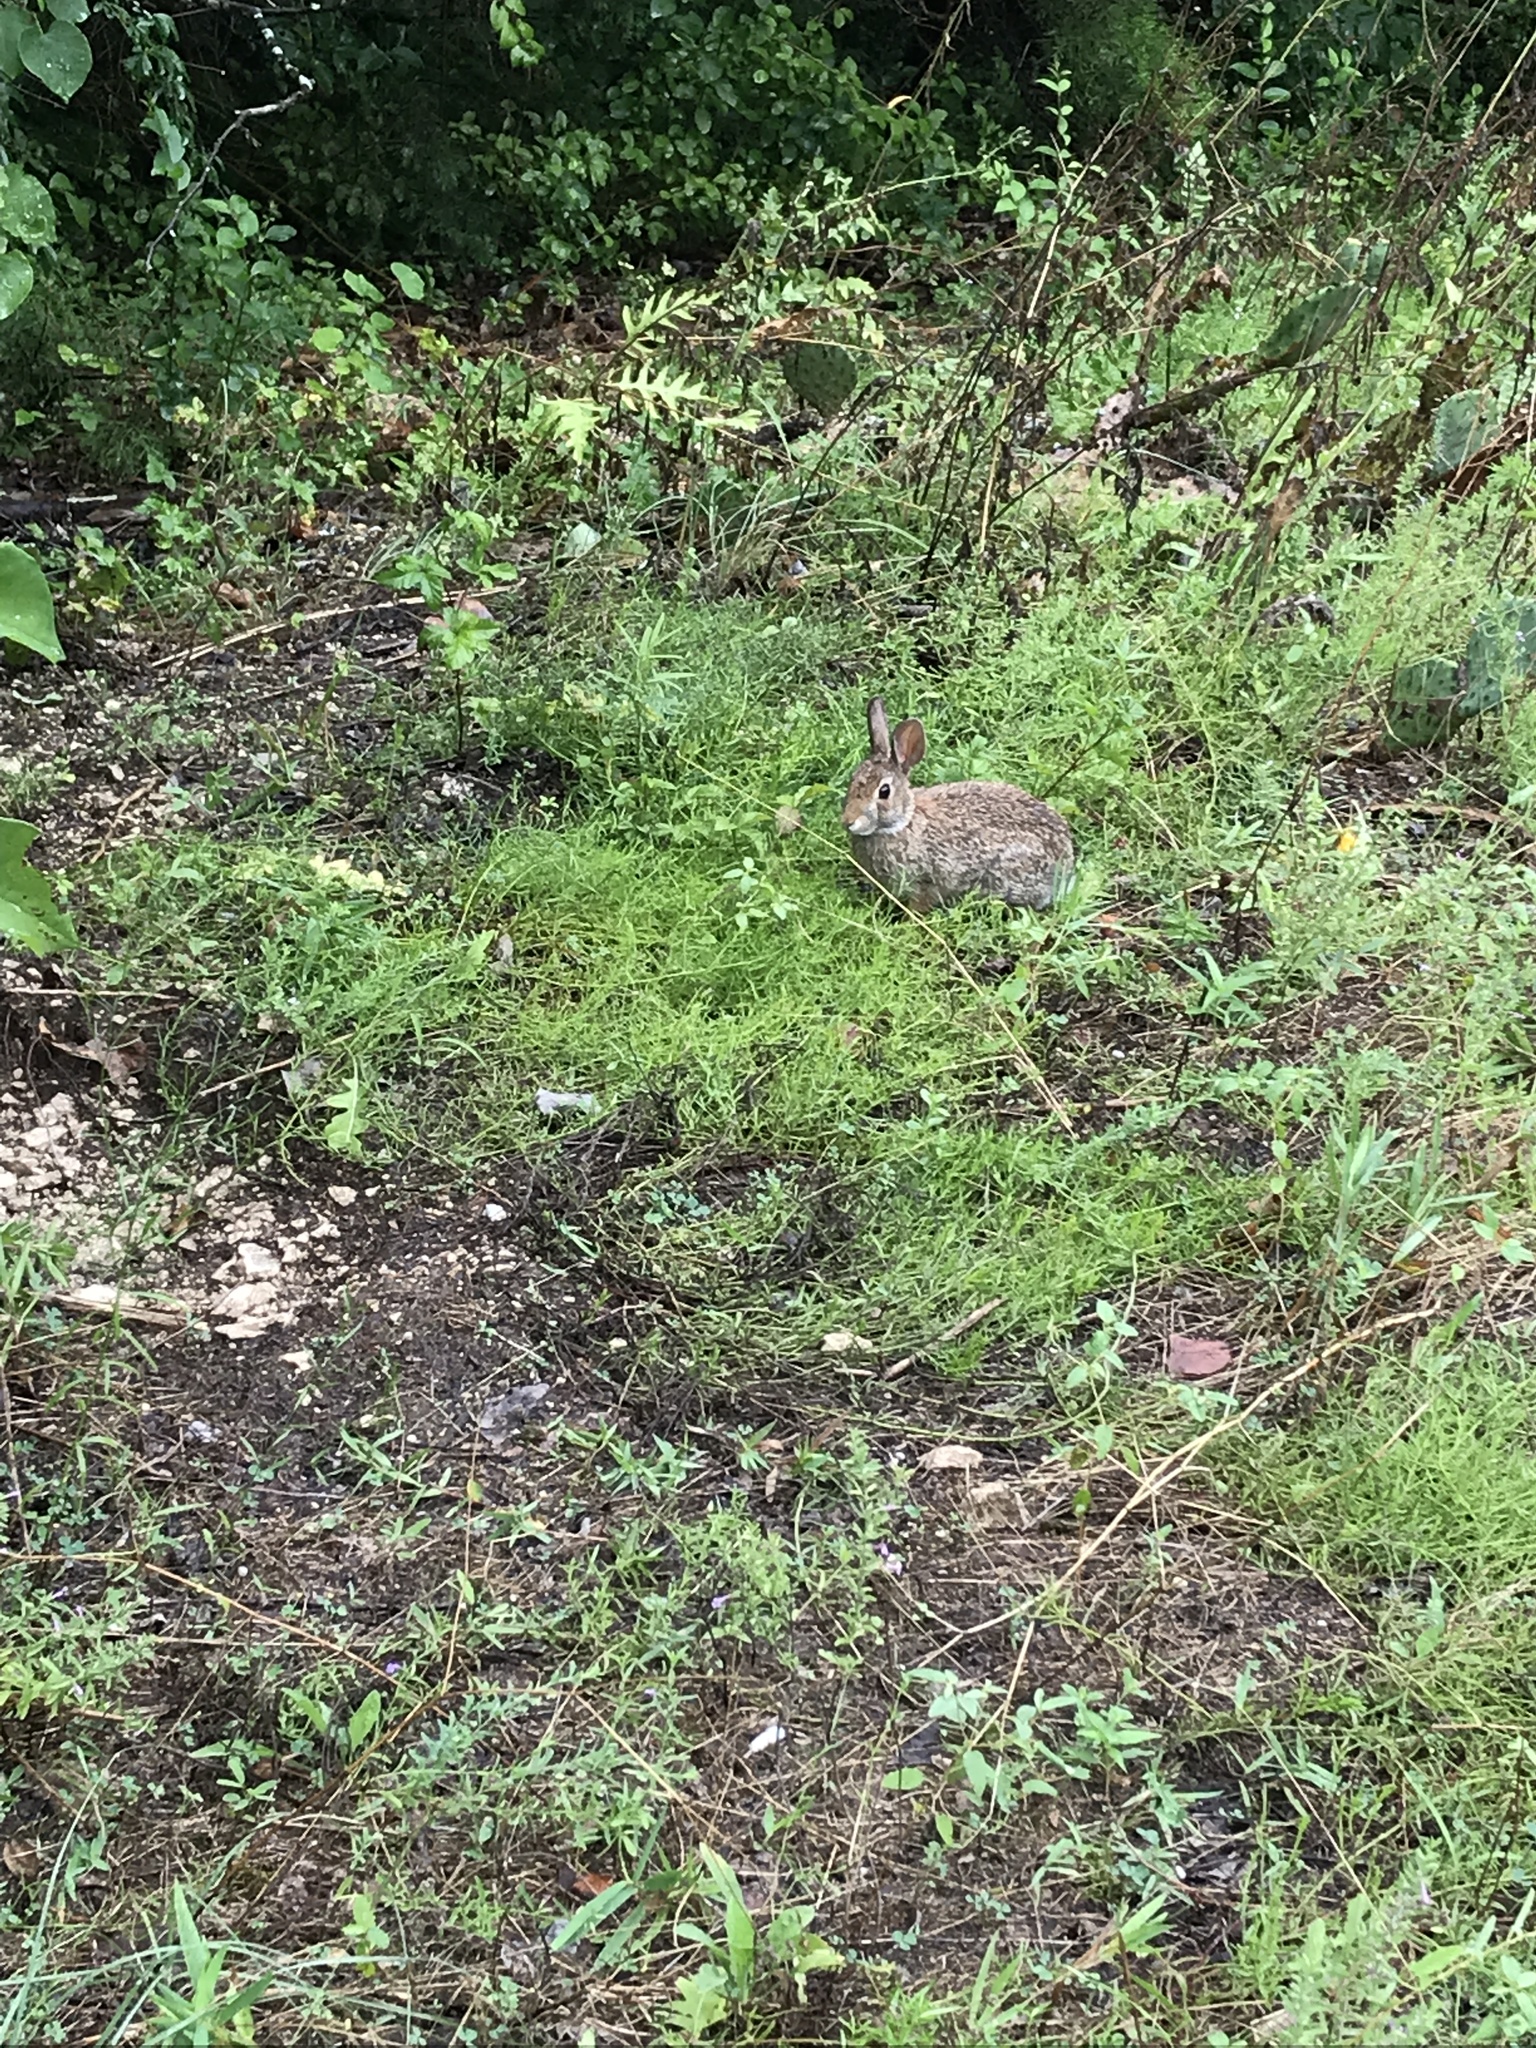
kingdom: Animalia
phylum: Chordata
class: Mammalia
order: Lagomorpha
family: Leporidae
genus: Sylvilagus
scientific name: Sylvilagus floridanus
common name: Eastern cottontail
